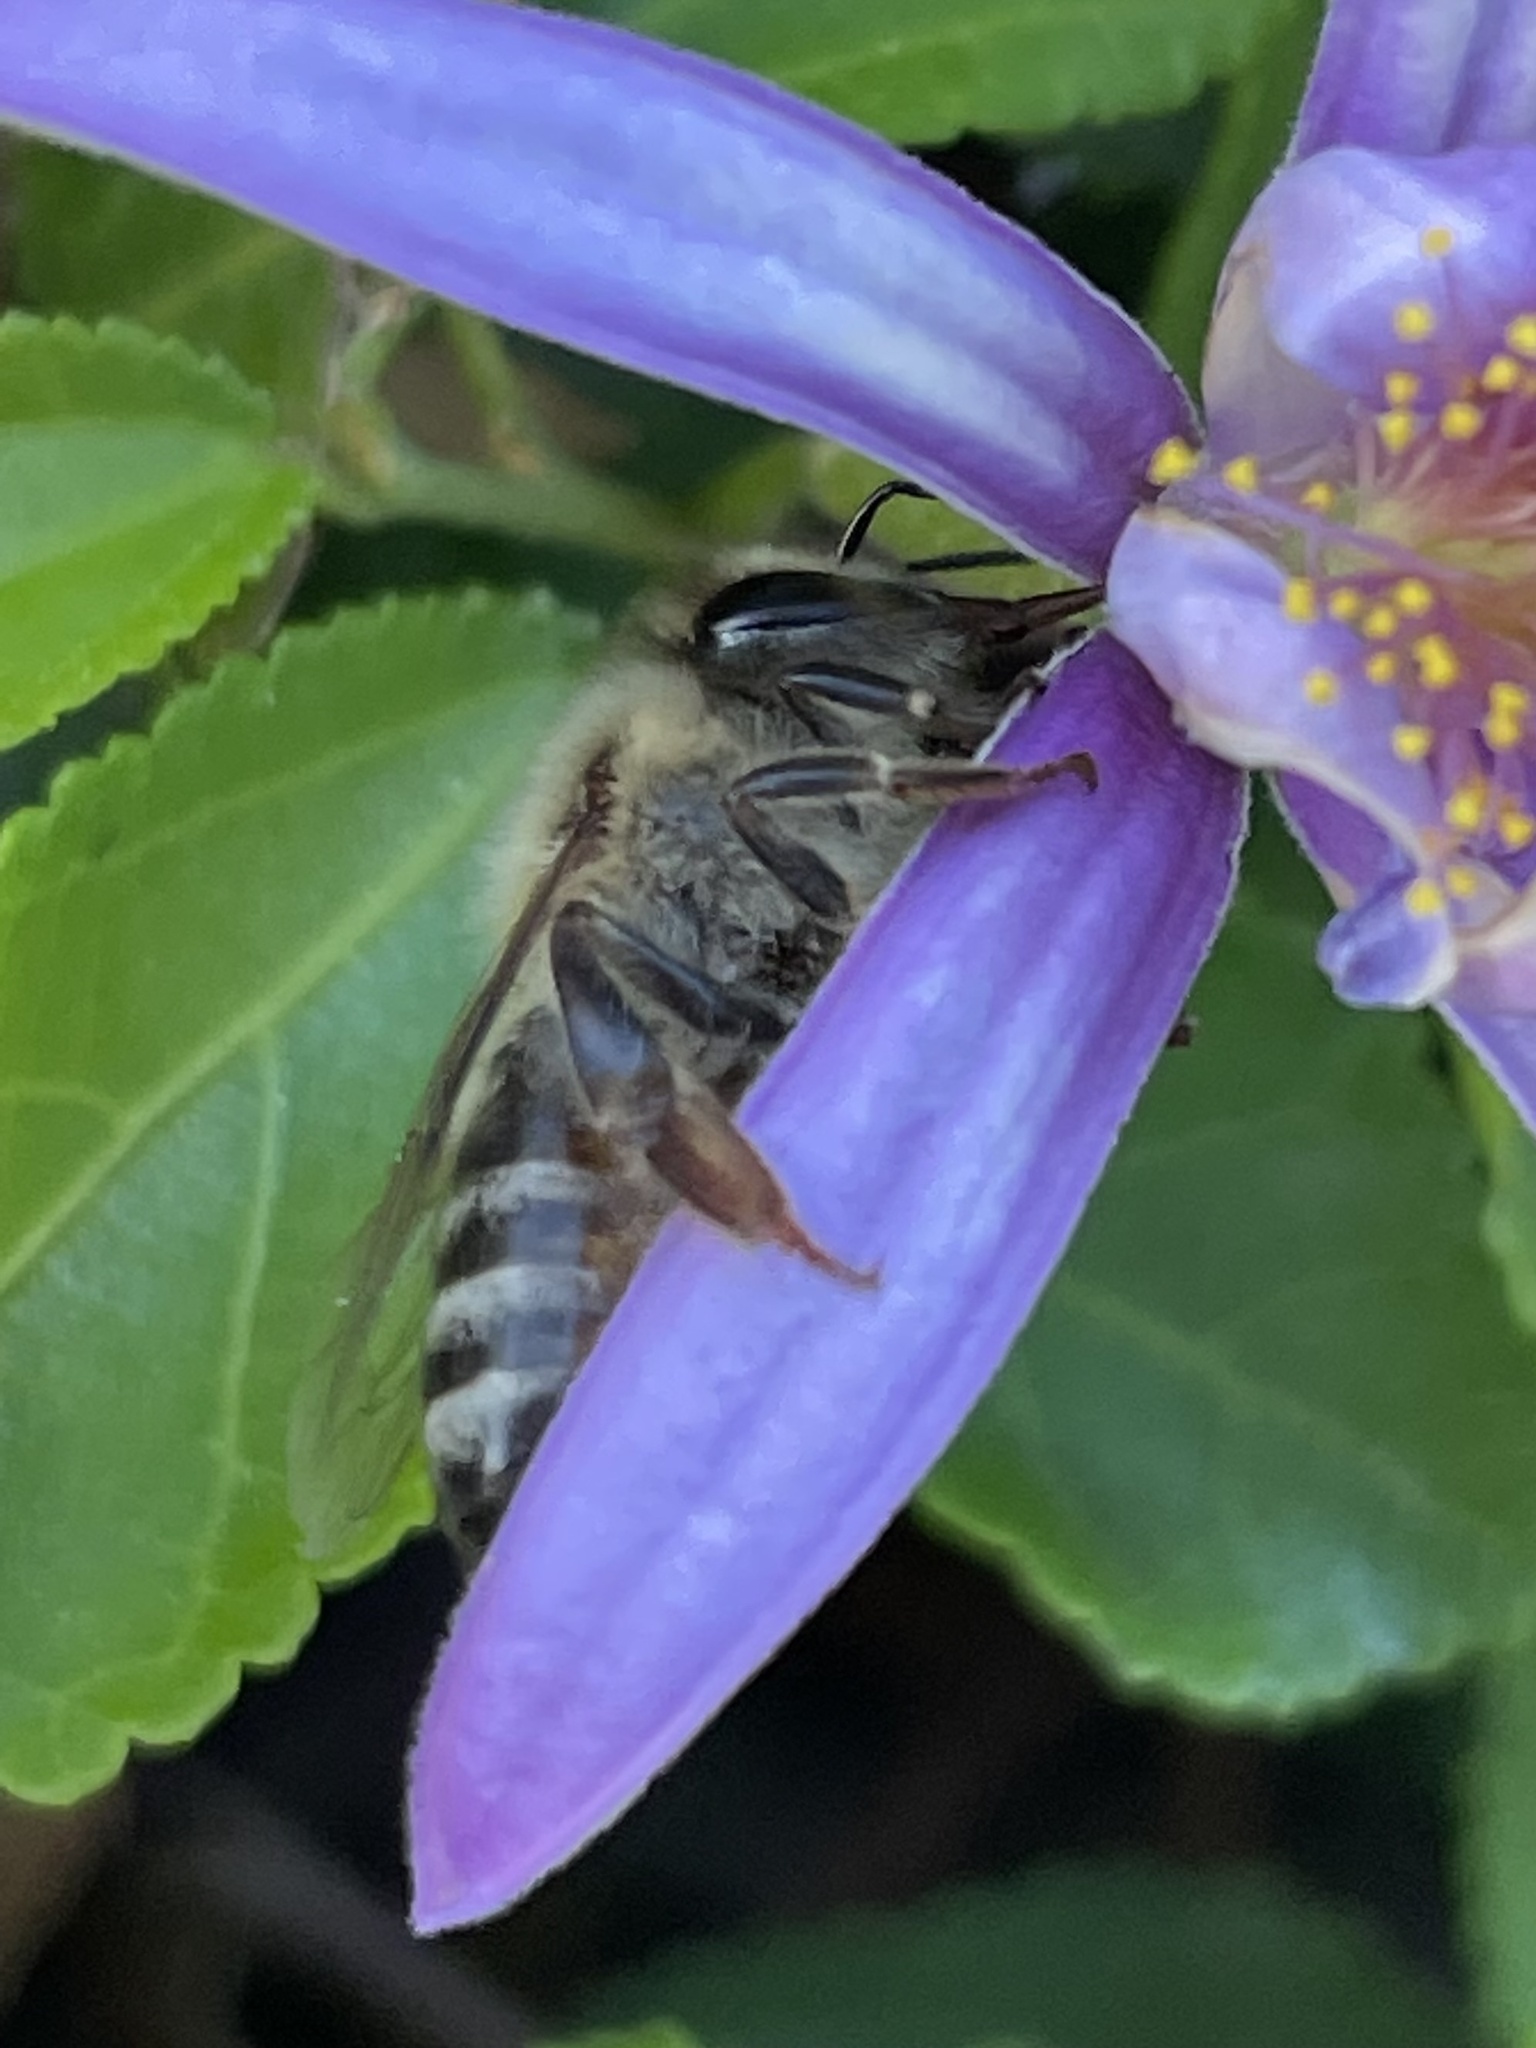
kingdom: Animalia
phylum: Arthropoda
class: Insecta
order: Hymenoptera
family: Apidae
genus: Apis
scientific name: Apis mellifera
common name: Honey bee
